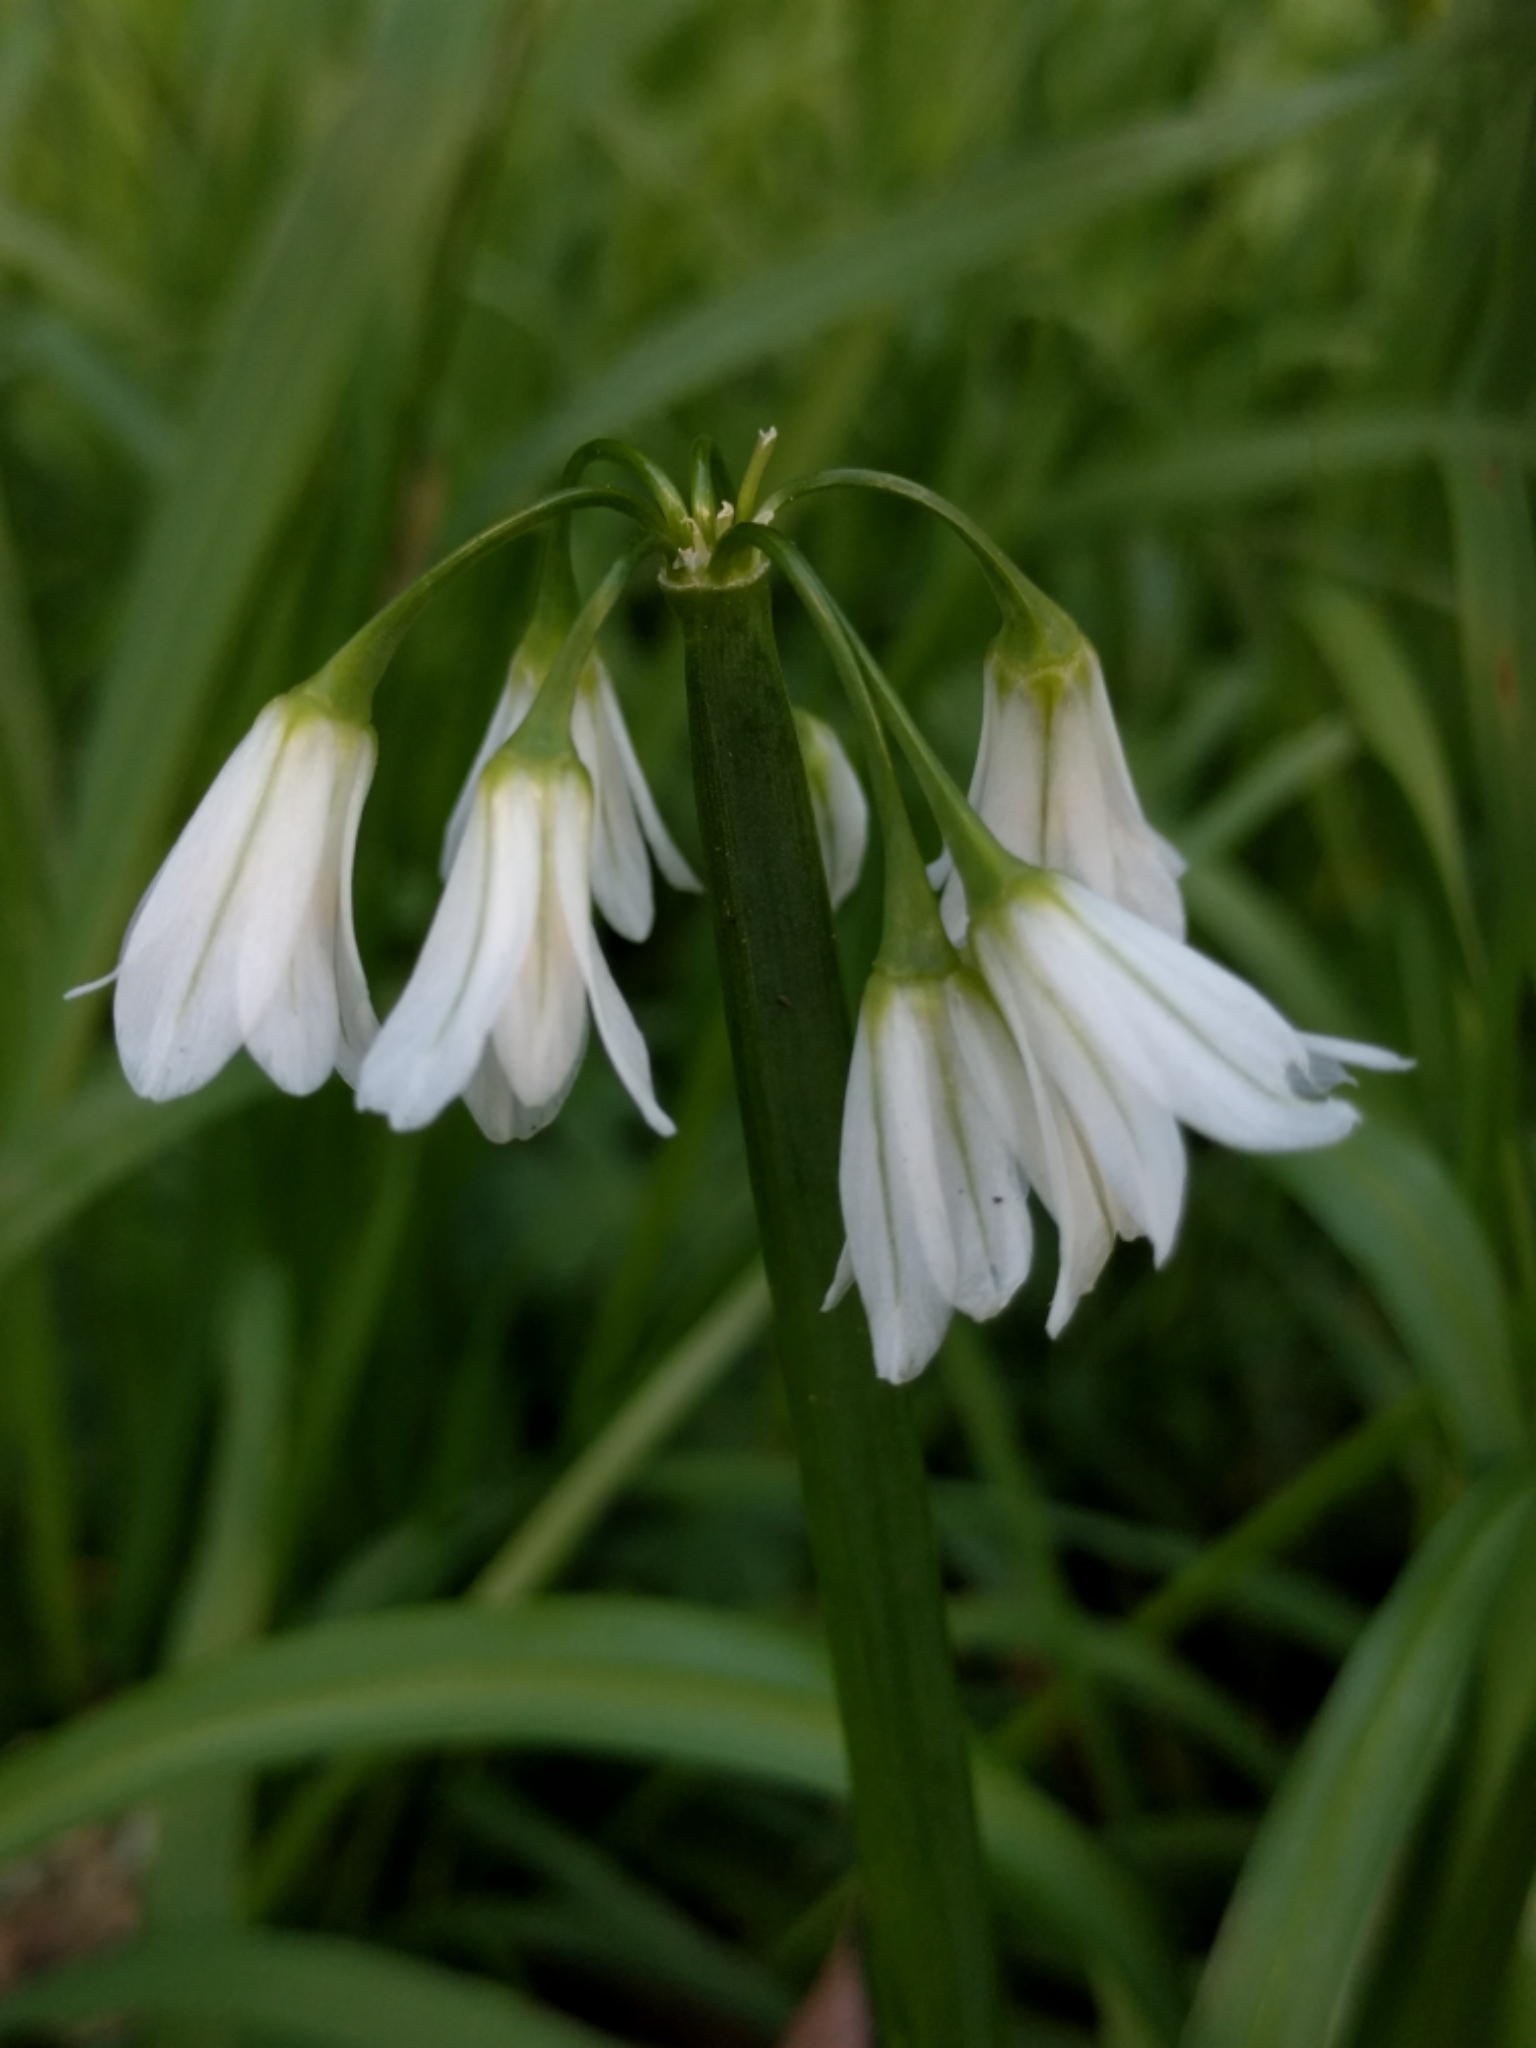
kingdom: Plantae
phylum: Tracheophyta
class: Liliopsida
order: Asparagales
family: Amaryllidaceae
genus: Allium
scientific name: Allium triquetrum
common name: Three-cornered garlic
